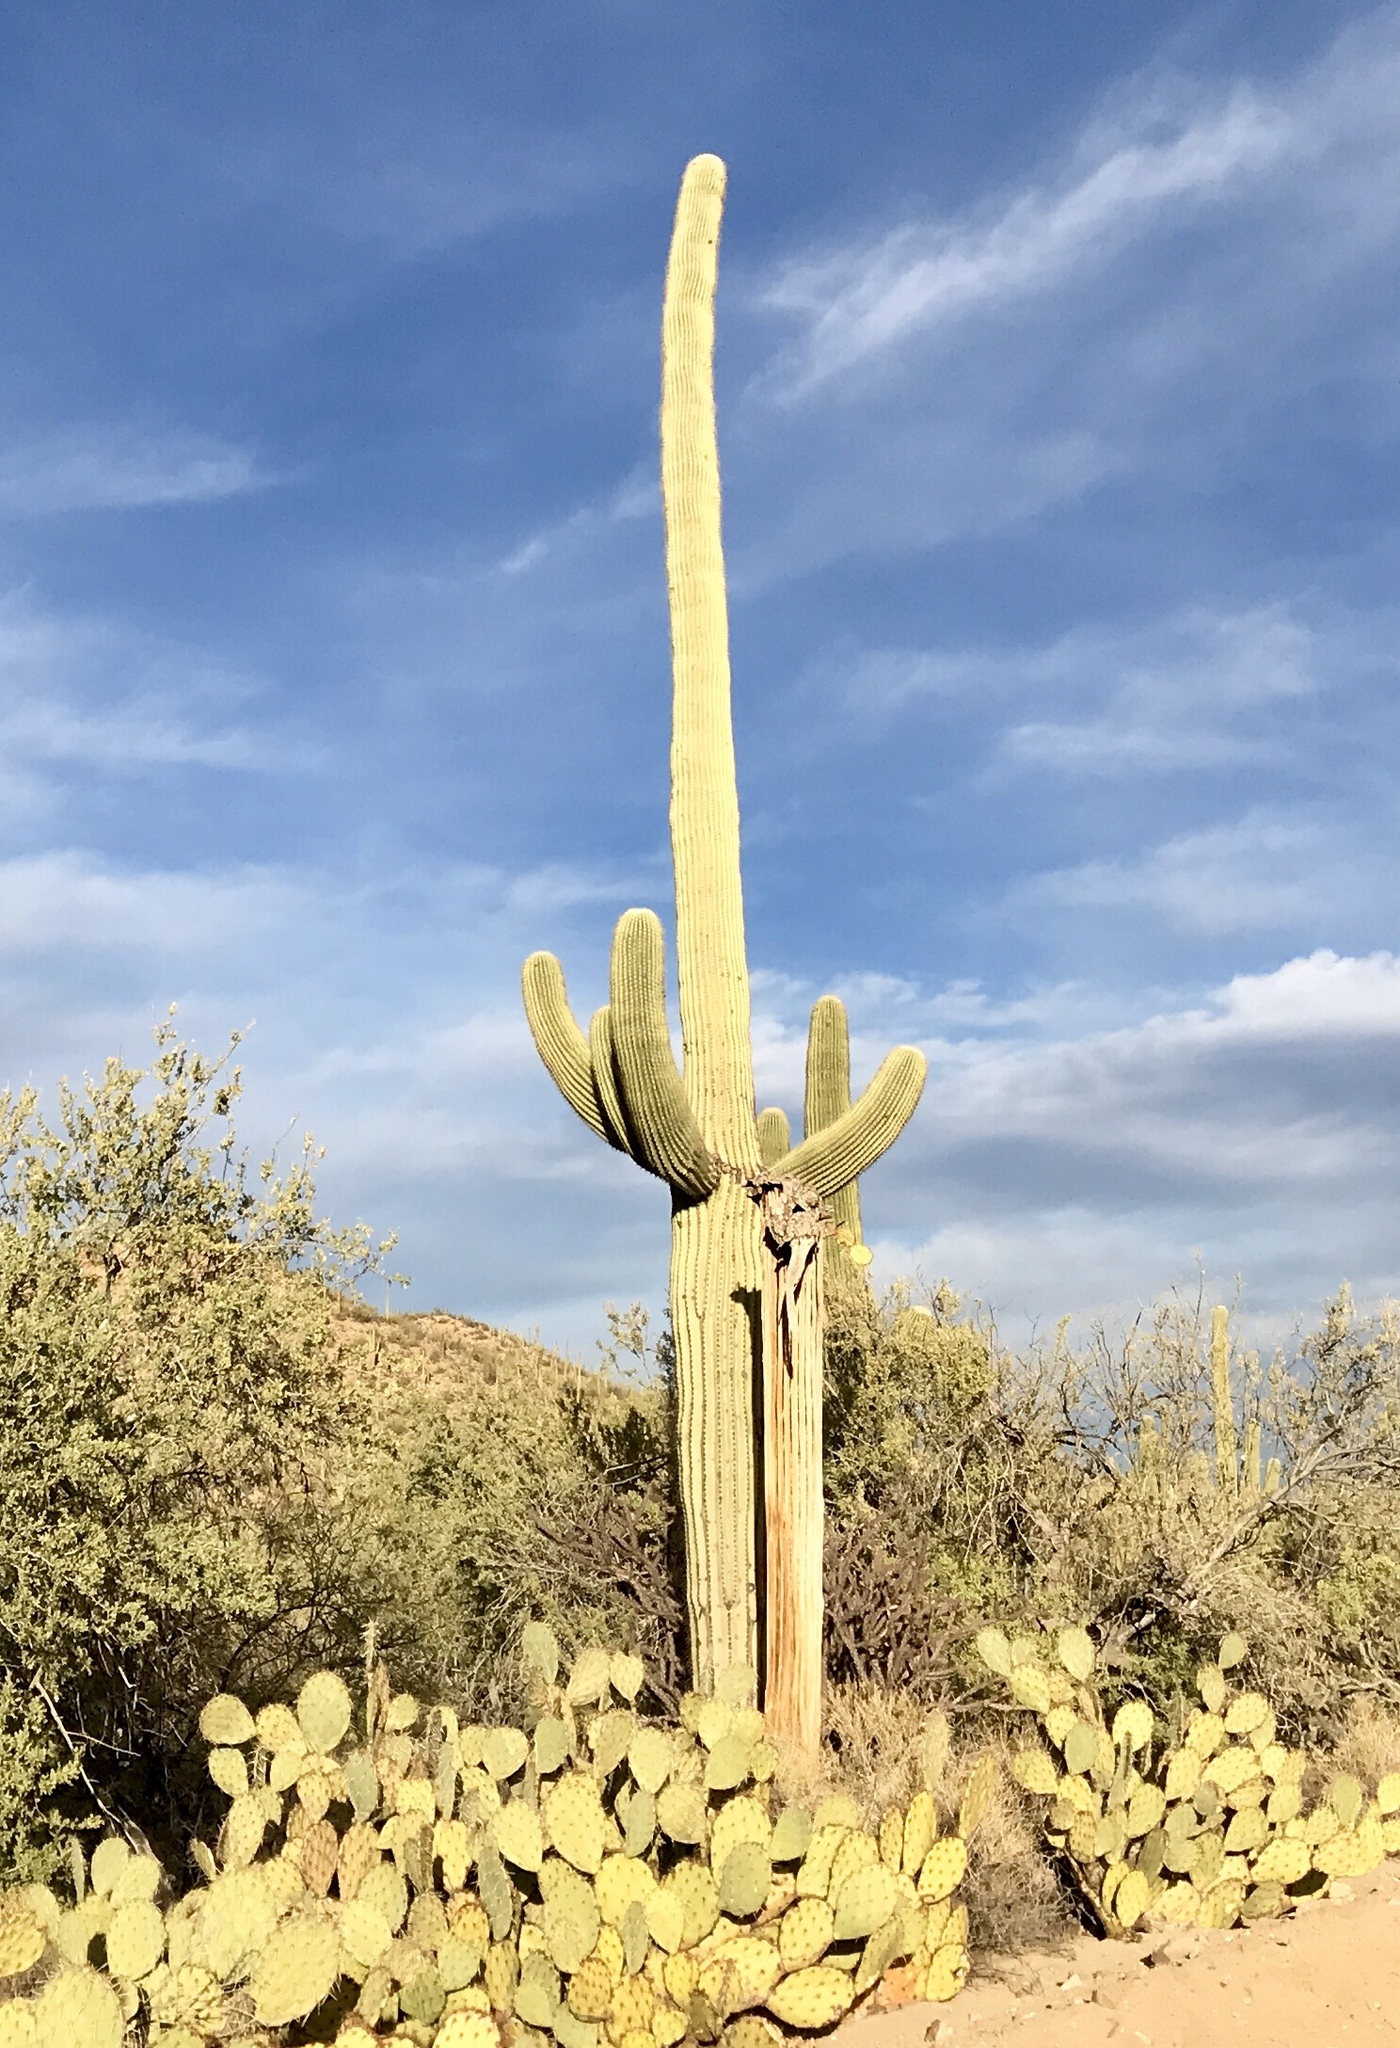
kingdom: Plantae
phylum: Tracheophyta
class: Magnoliopsida
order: Caryophyllales
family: Cactaceae
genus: Carnegiea
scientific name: Carnegiea gigantea
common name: Saguaro
